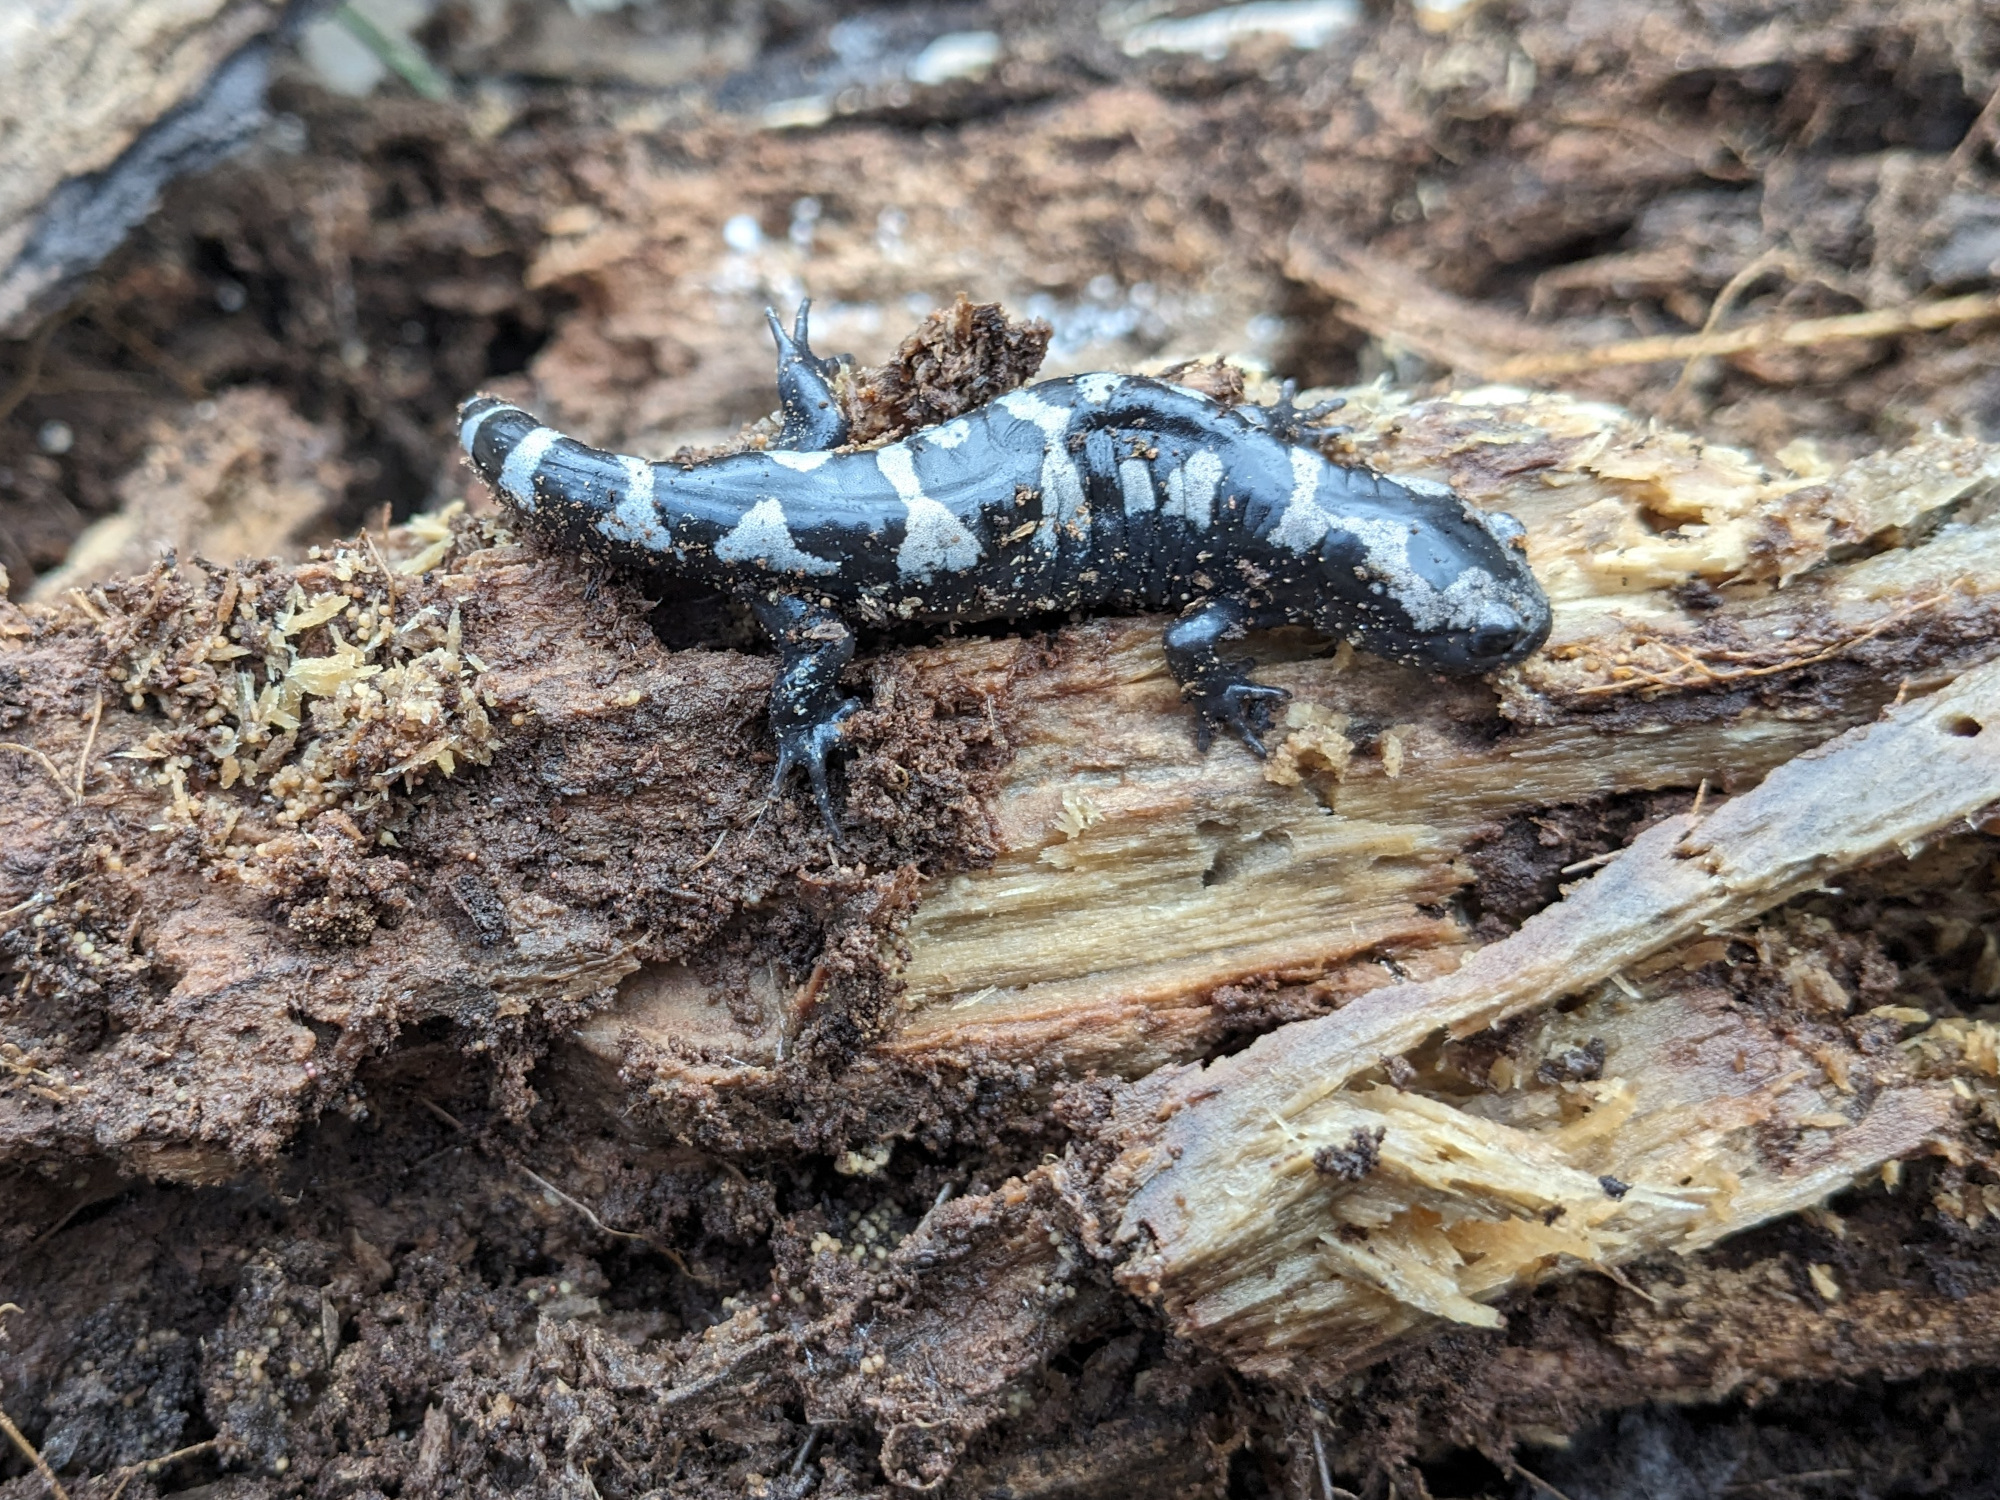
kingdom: Animalia
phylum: Chordata
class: Amphibia
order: Caudata
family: Ambystomatidae
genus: Ambystoma
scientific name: Ambystoma opacum
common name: Marbled salamander
